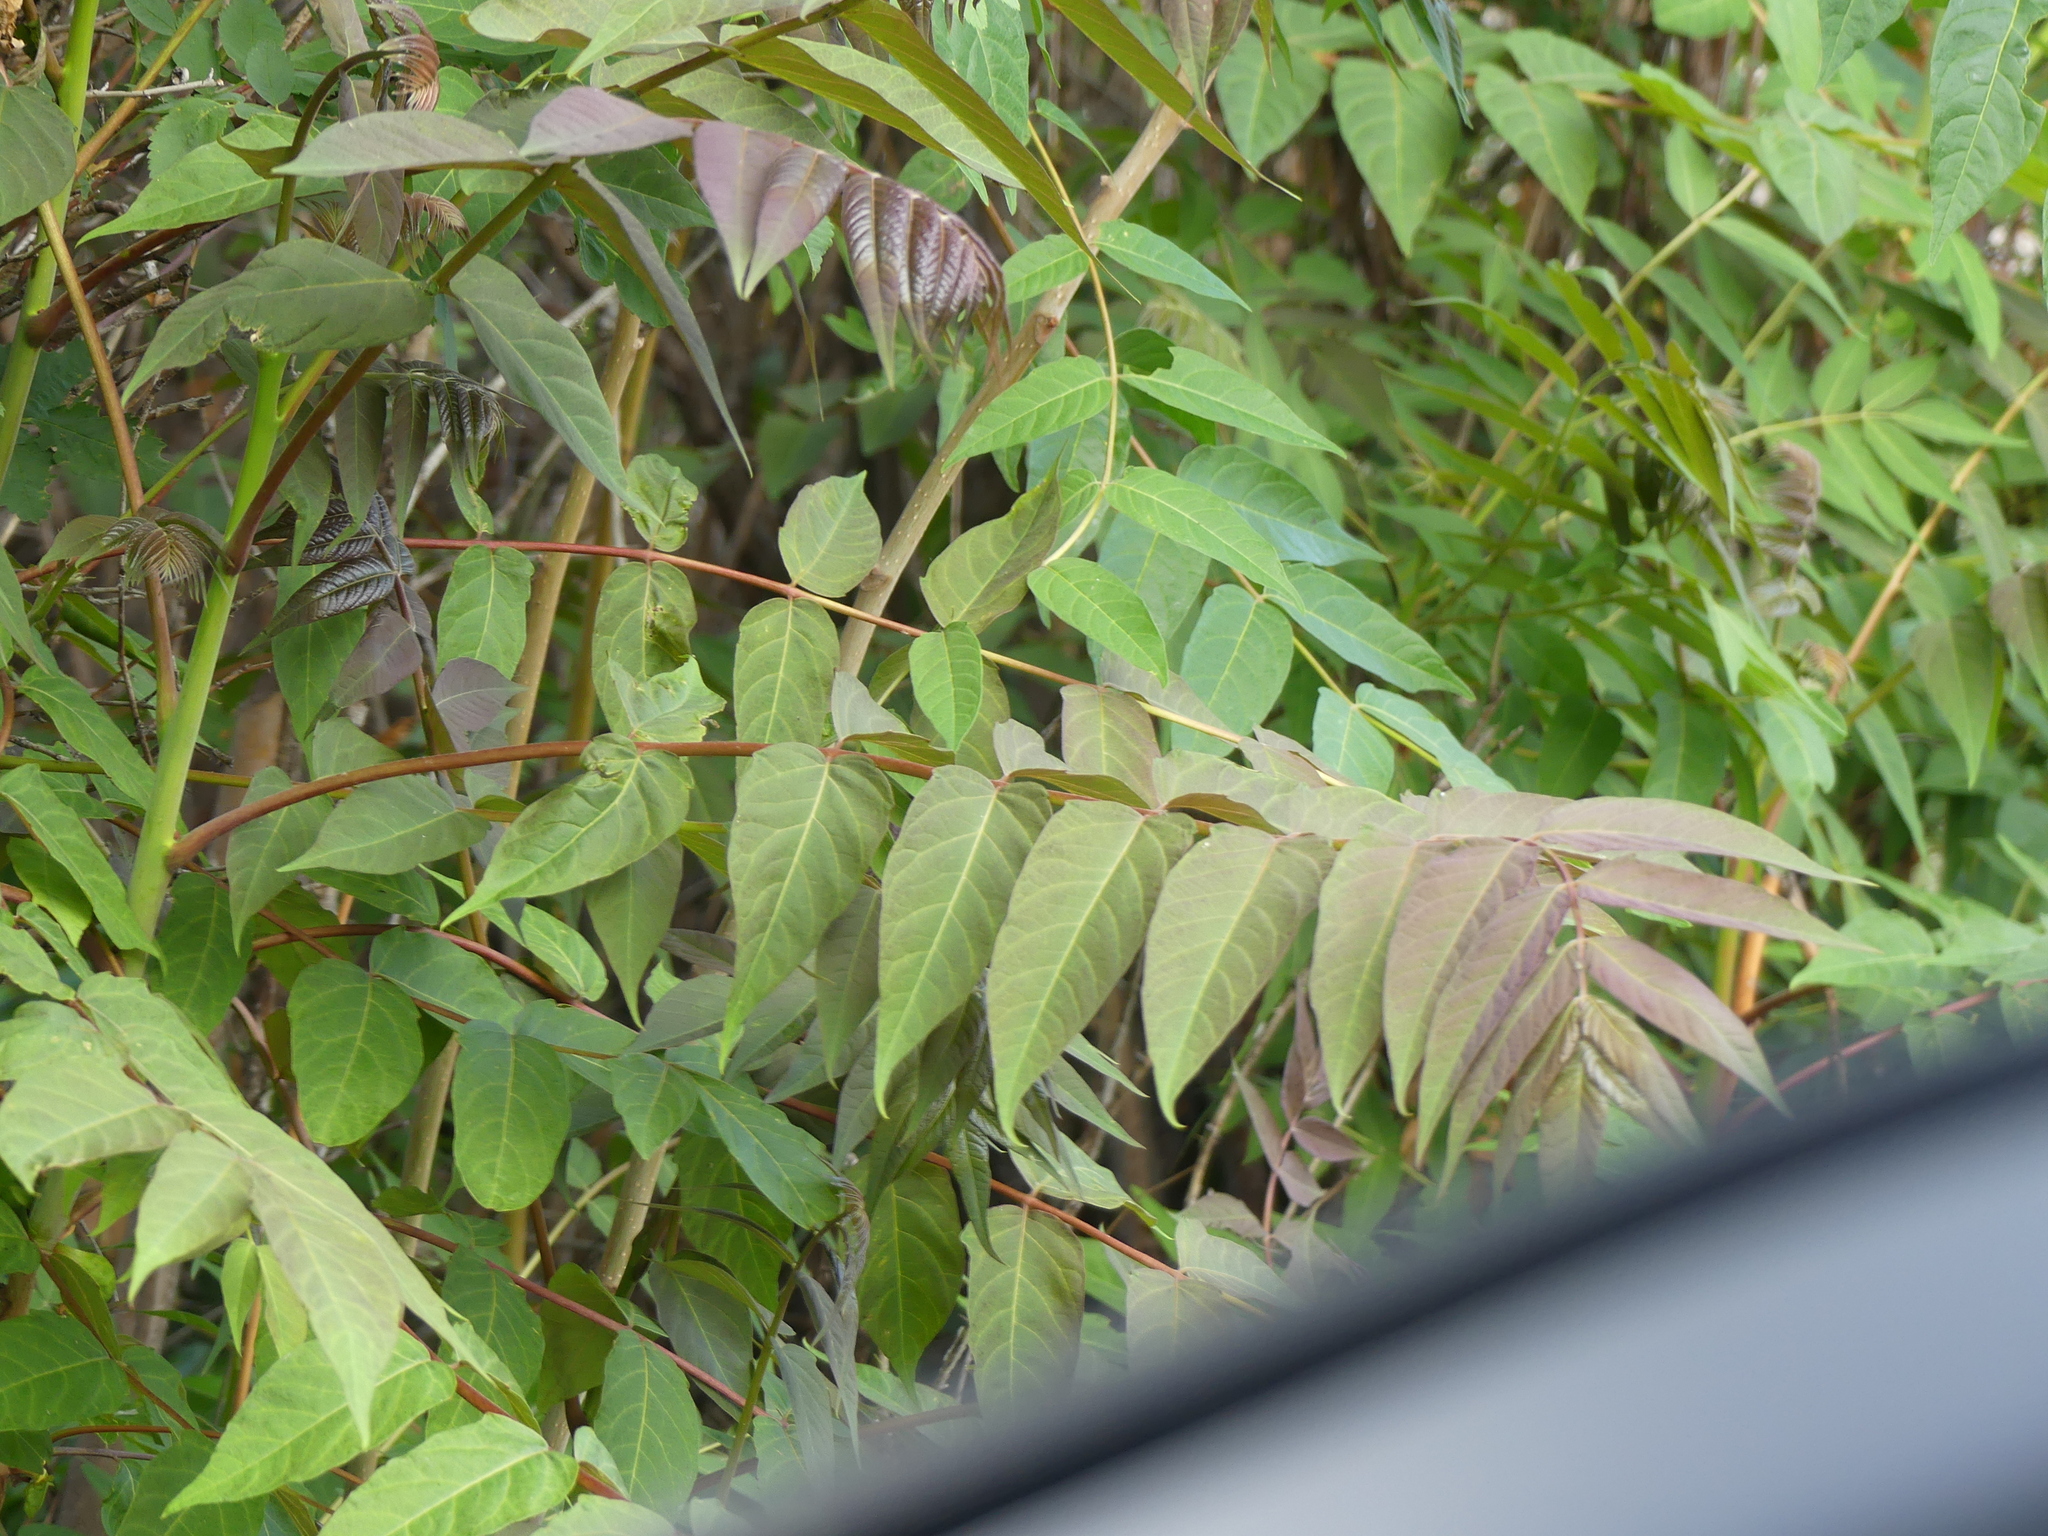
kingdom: Plantae
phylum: Tracheophyta
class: Magnoliopsida
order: Sapindales
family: Simaroubaceae
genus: Ailanthus
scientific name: Ailanthus altissima
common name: Tree-of-heaven
